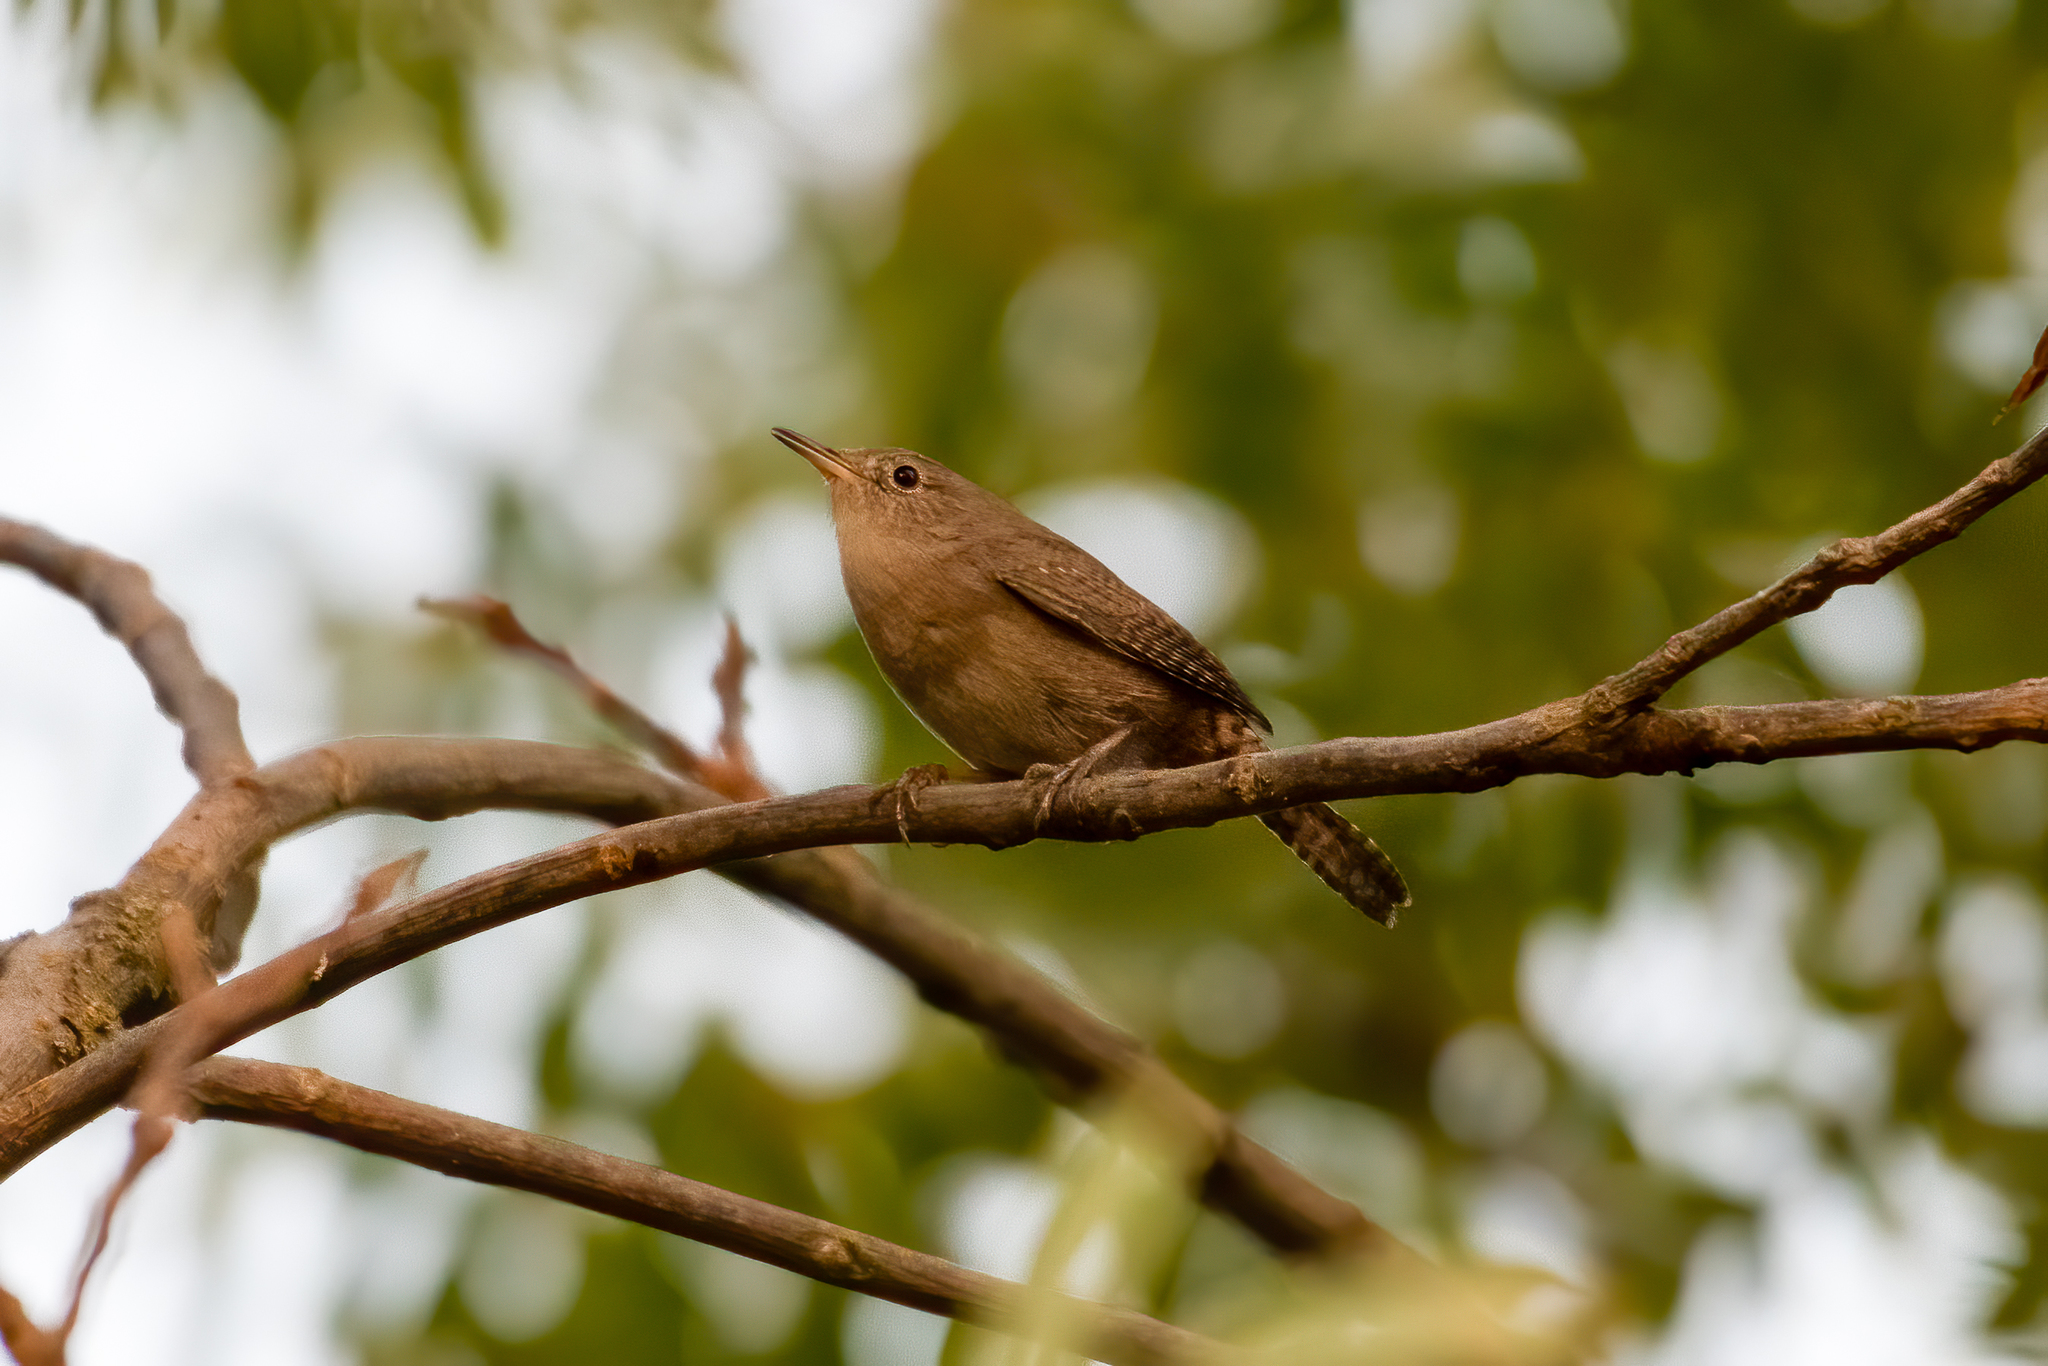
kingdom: Animalia
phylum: Chordata
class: Aves
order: Passeriformes
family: Troglodytidae
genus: Troglodytes
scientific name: Troglodytes aedon
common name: House wren
